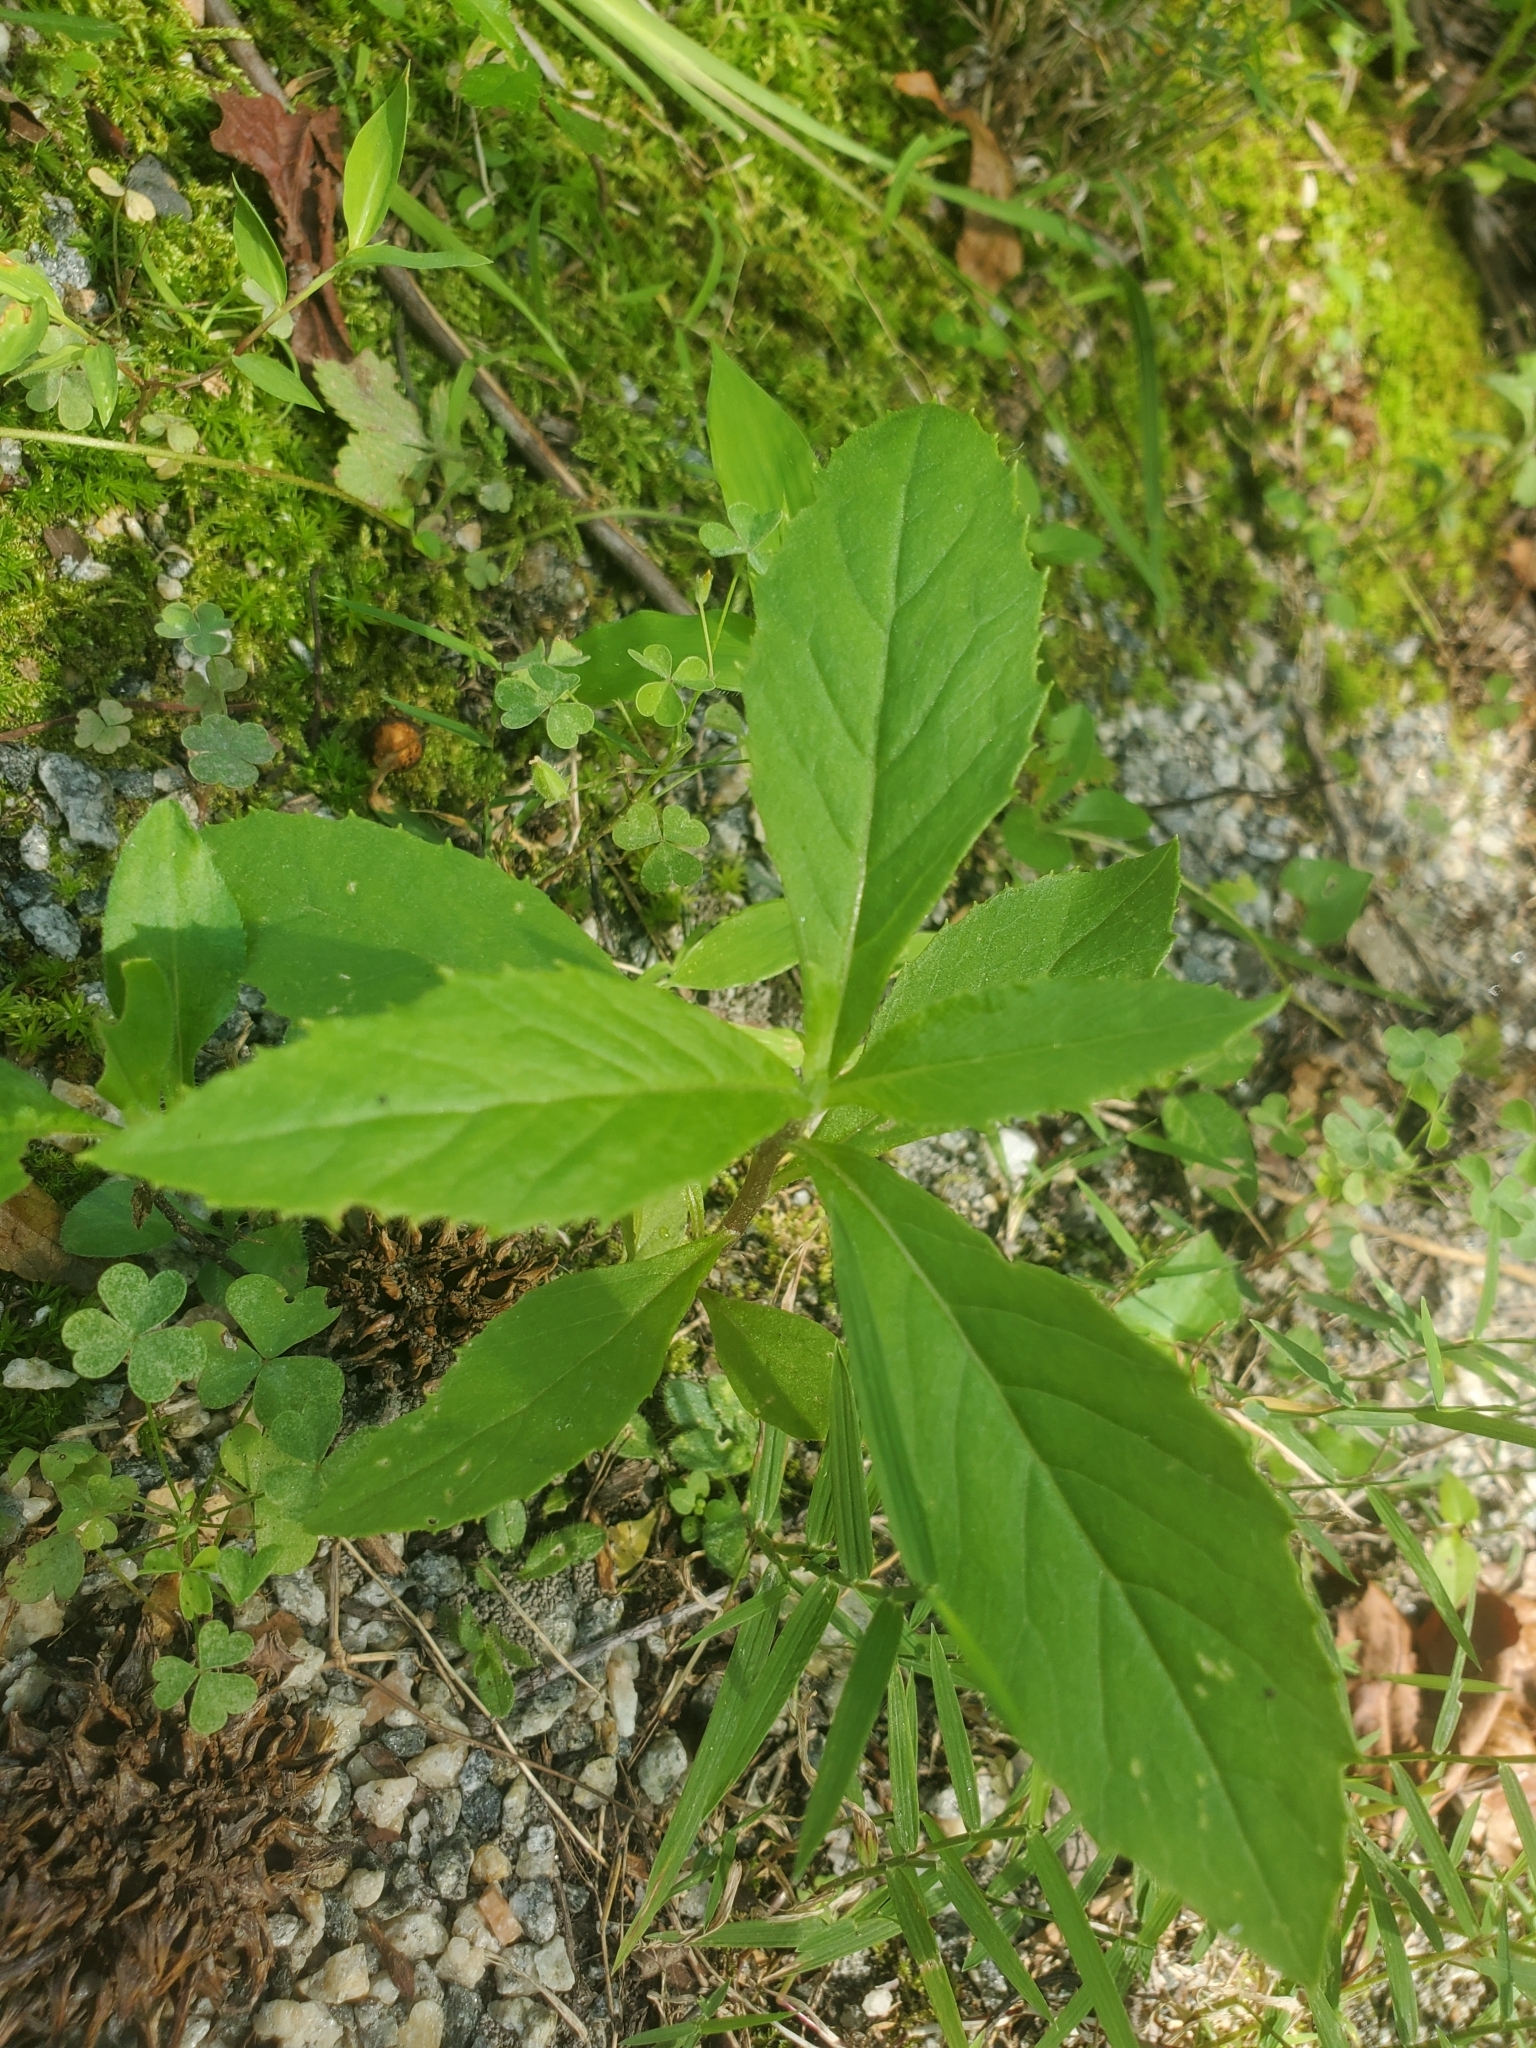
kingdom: Plantae
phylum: Tracheophyta
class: Magnoliopsida
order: Asterales
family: Asteraceae
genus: Erechtites
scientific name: Erechtites hieraciifolius
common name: American burnweed
